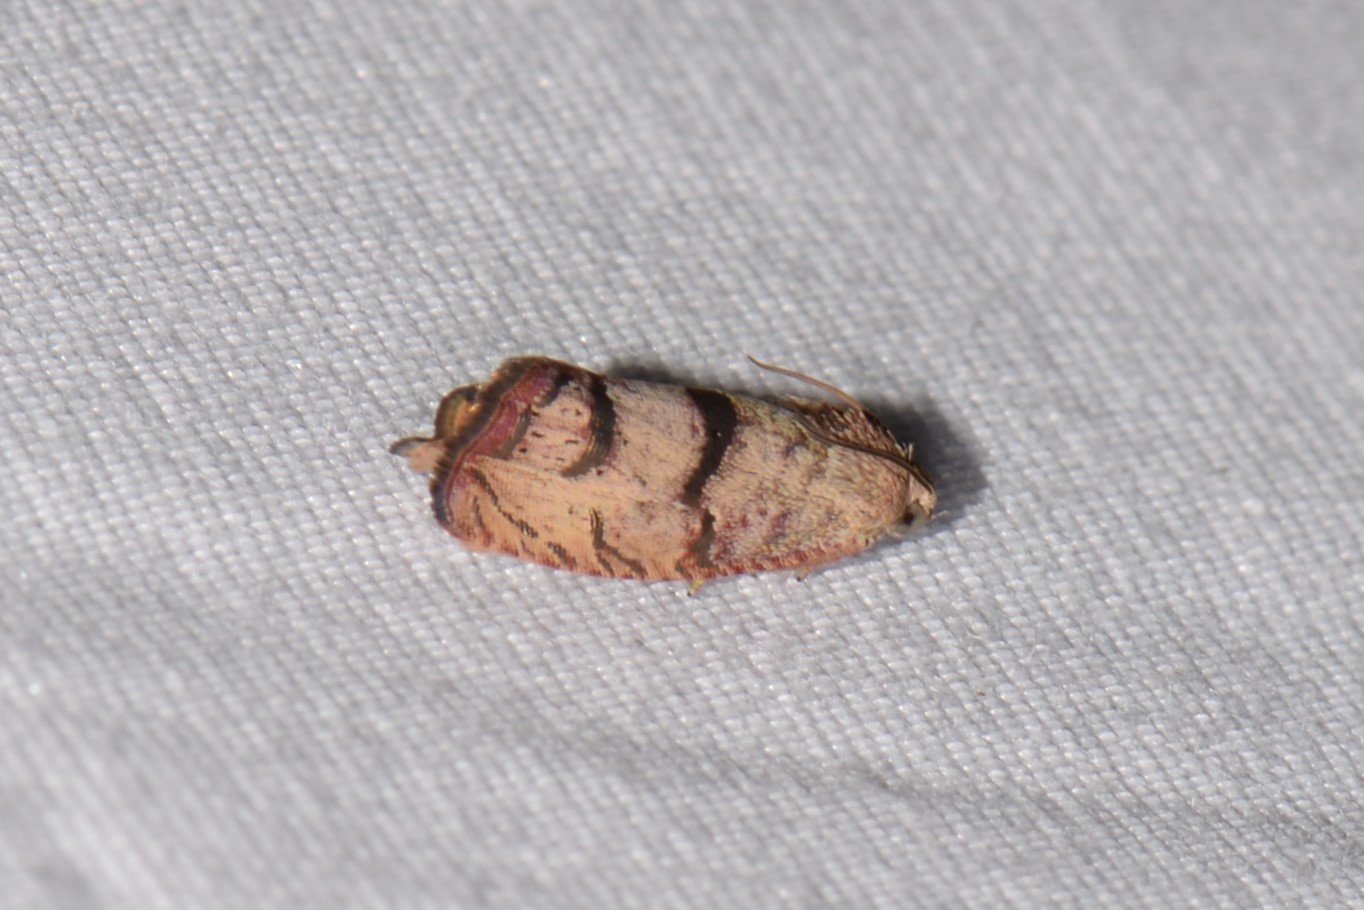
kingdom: Animalia
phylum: Arthropoda
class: Insecta
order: Lepidoptera
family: Tortricidae
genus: Cydia
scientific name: Cydia latiferreana
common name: Filbertworm moth
